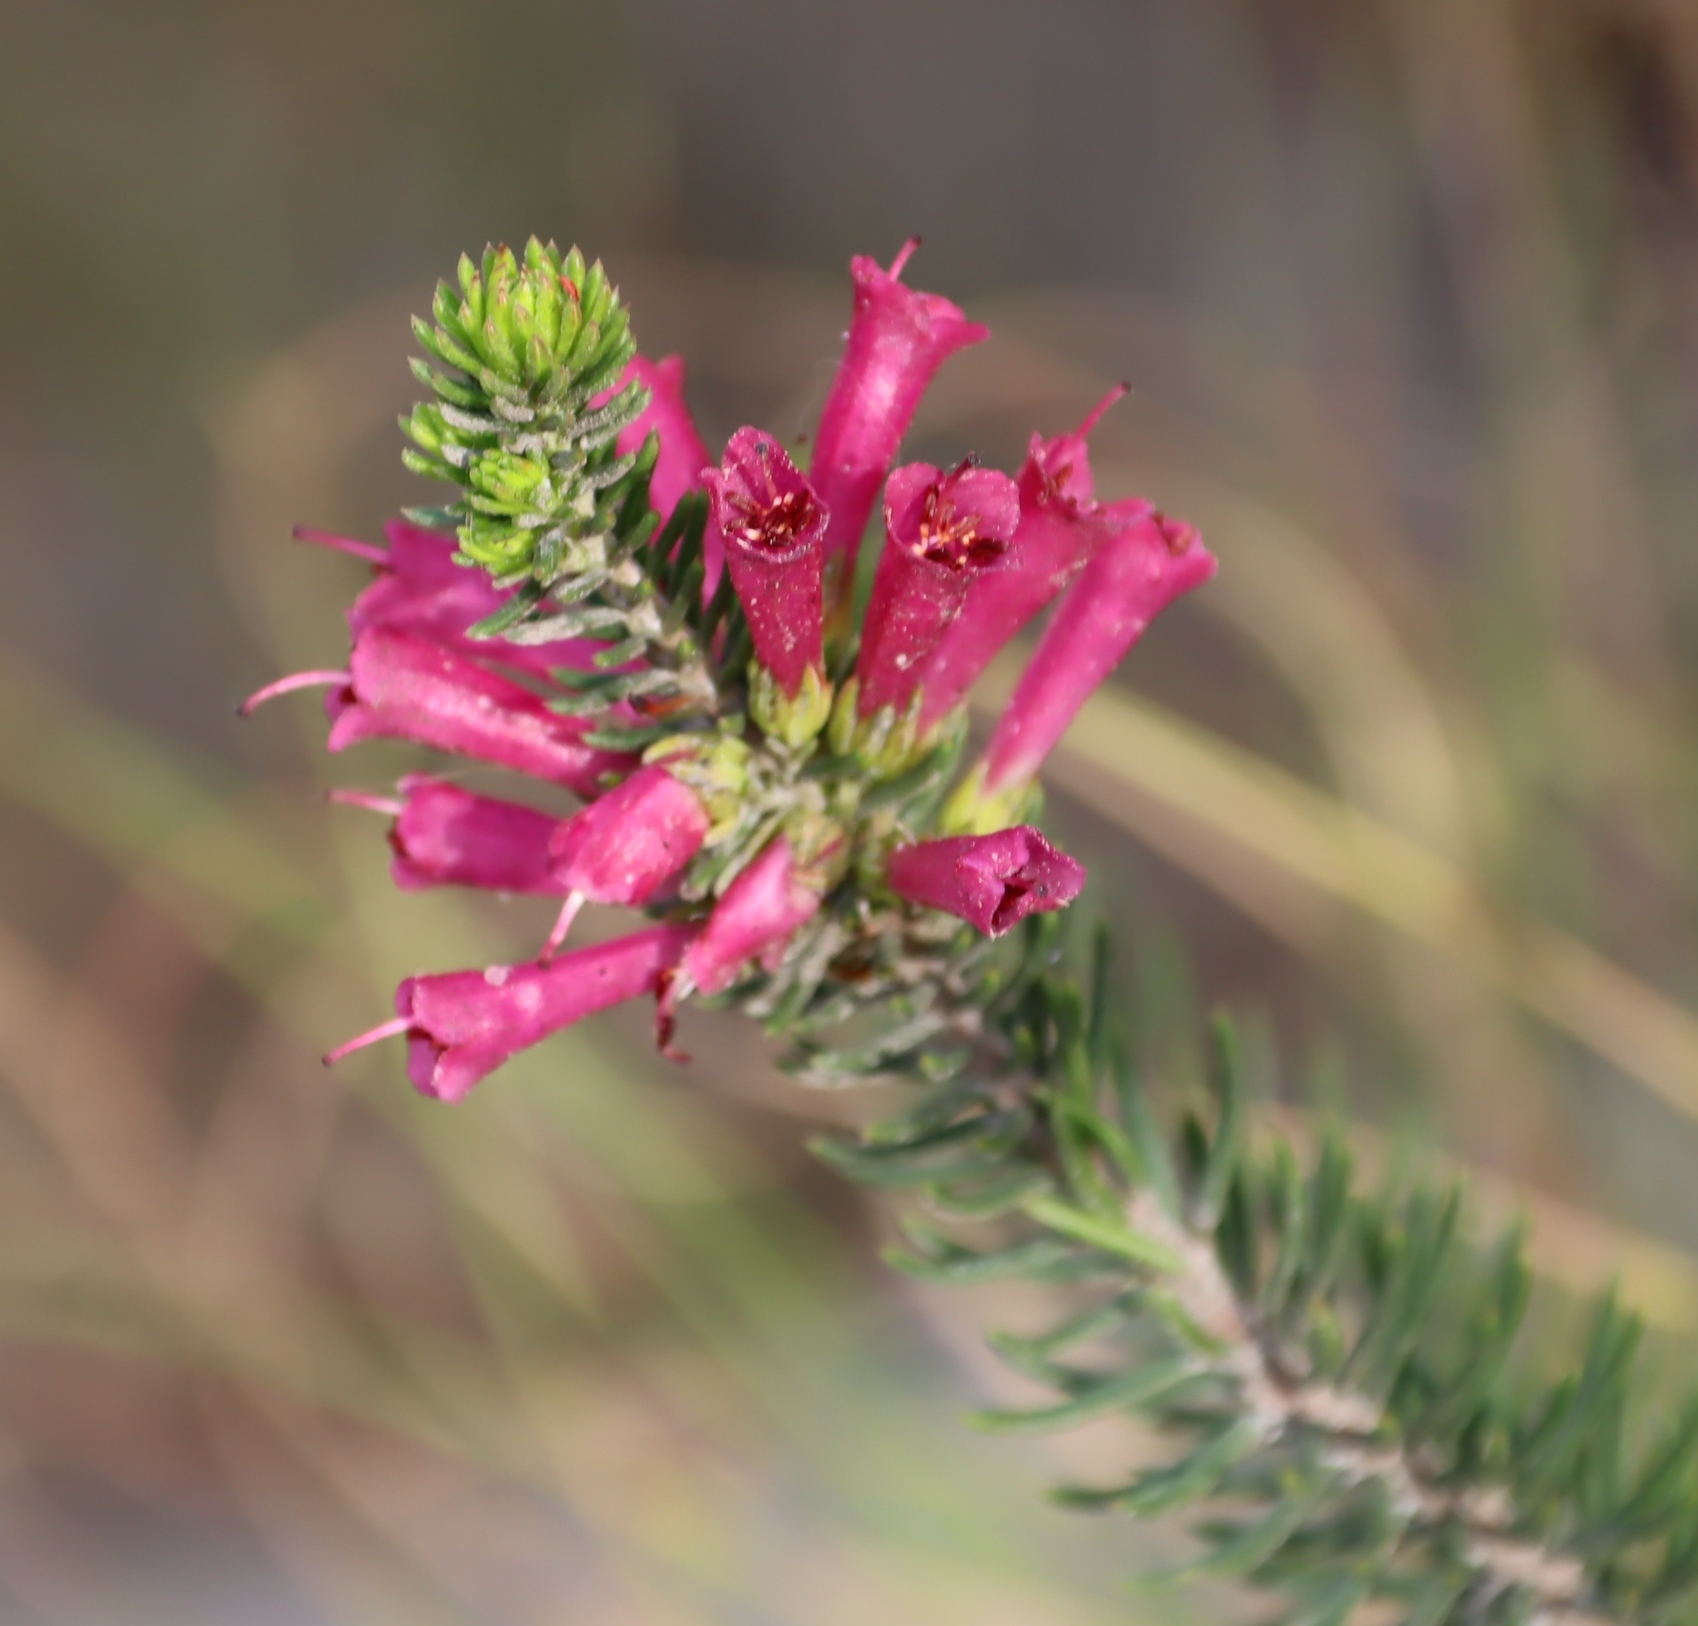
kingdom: Plantae
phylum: Tracheophyta
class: Magnoliopsida
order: Ericales
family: Ericaceae
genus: Erica
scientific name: Erica abietina
